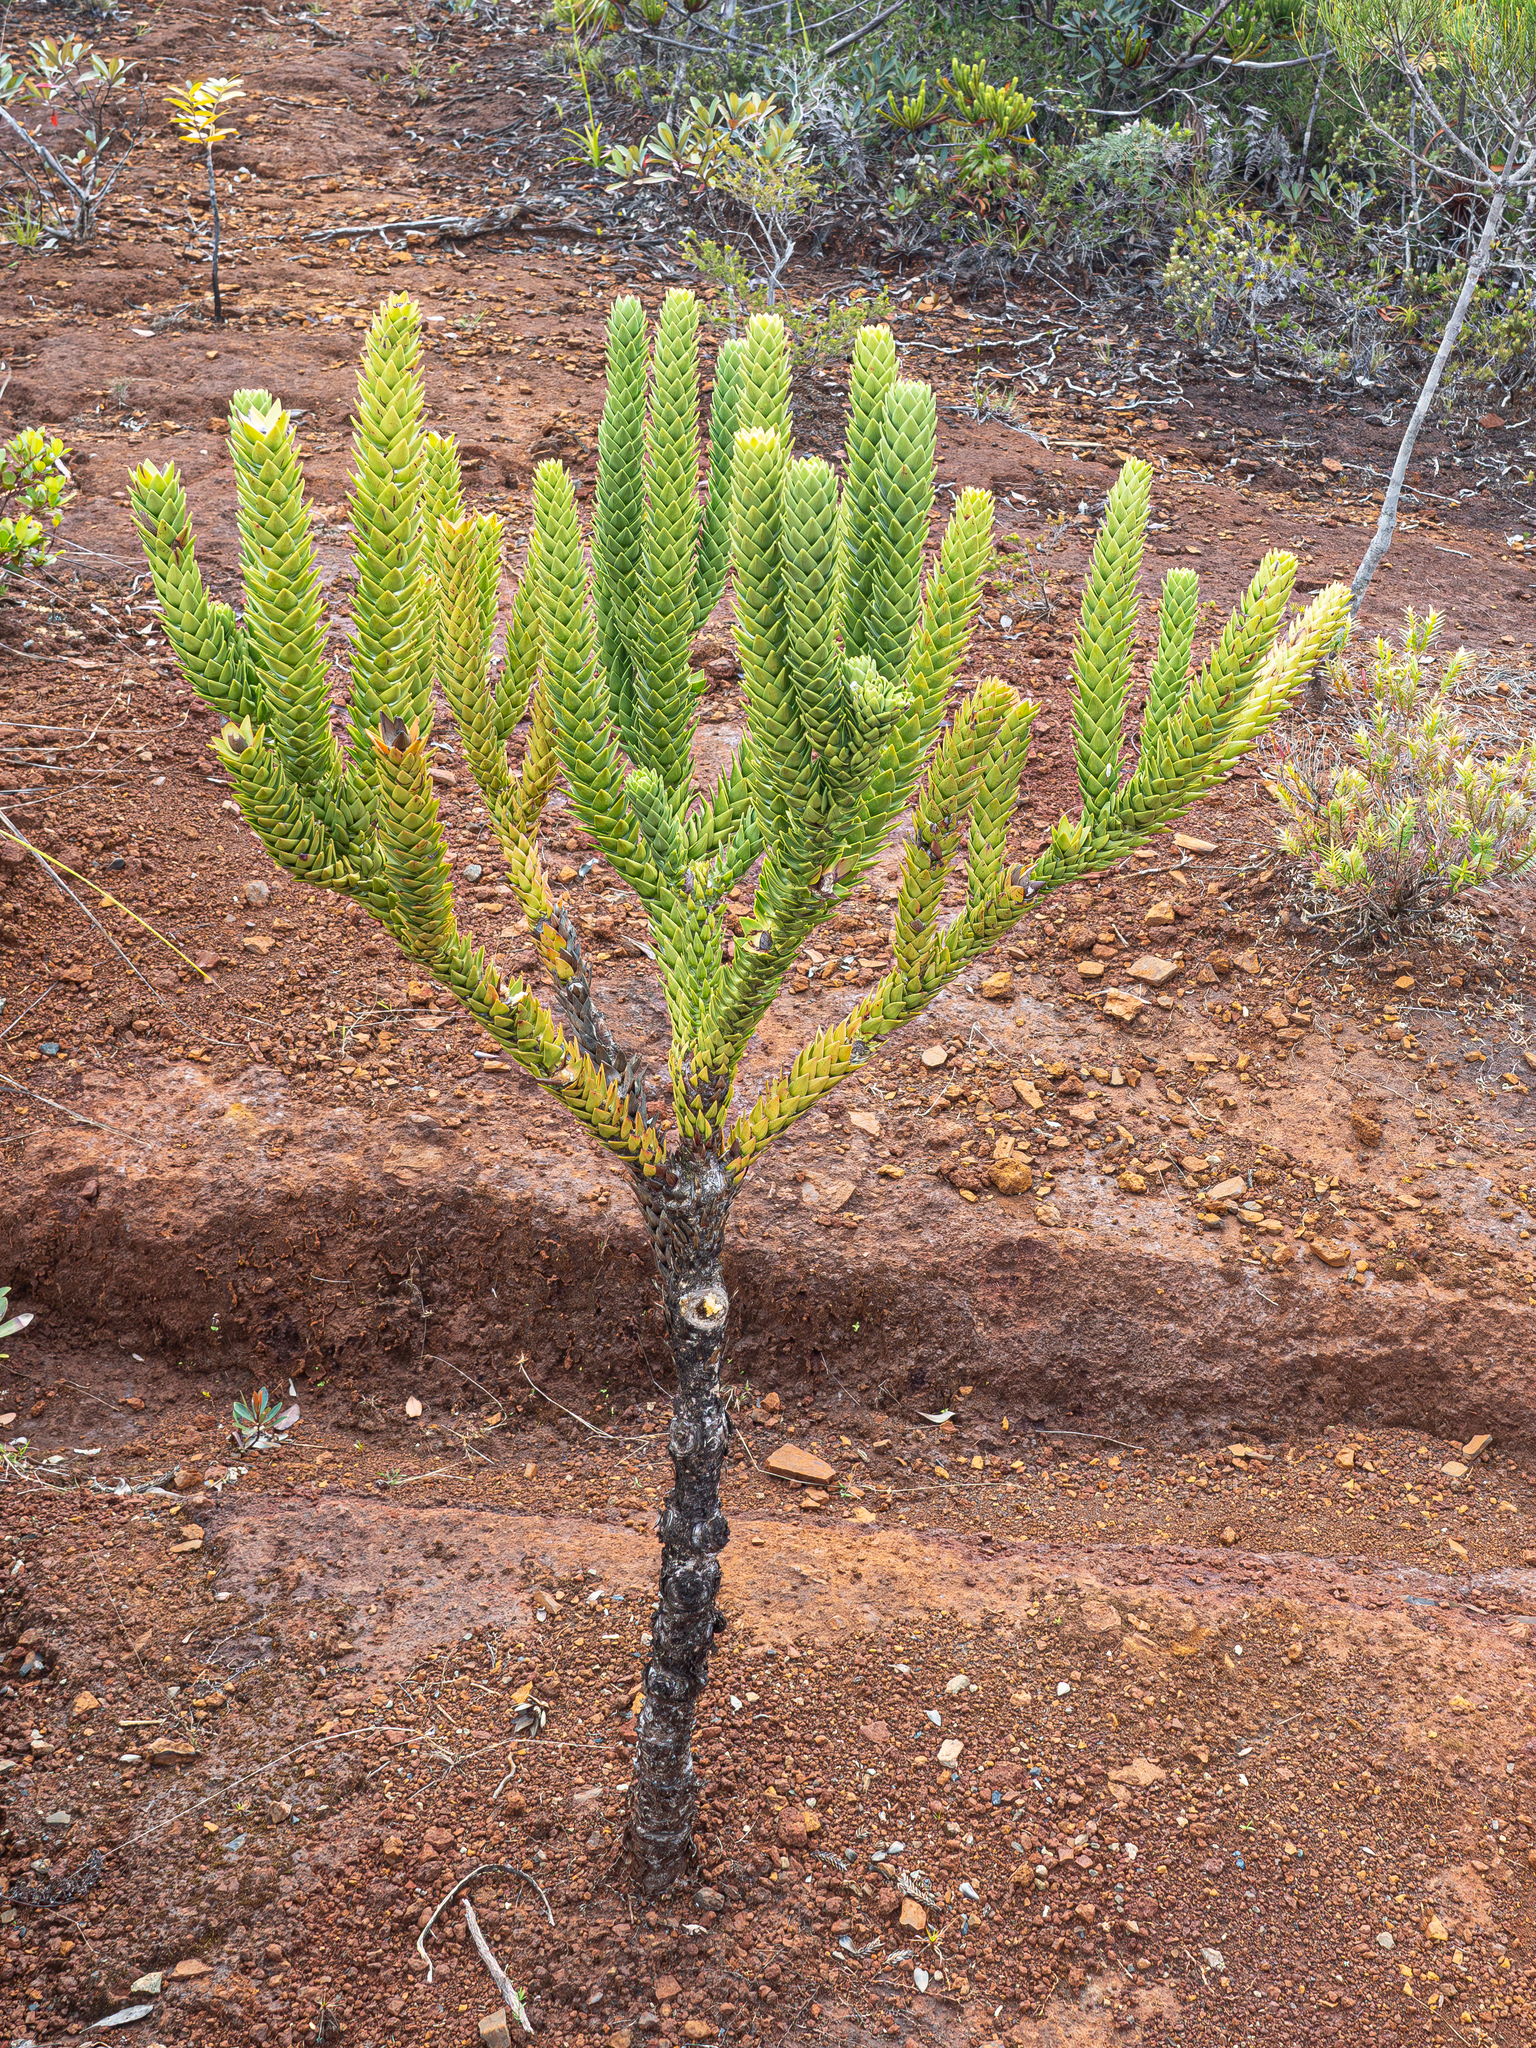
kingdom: Plantae
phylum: Tracheophyta
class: Pinopsida
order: Pinales
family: Araucariaceae
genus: Araucaria
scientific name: Araucaria muelleri
